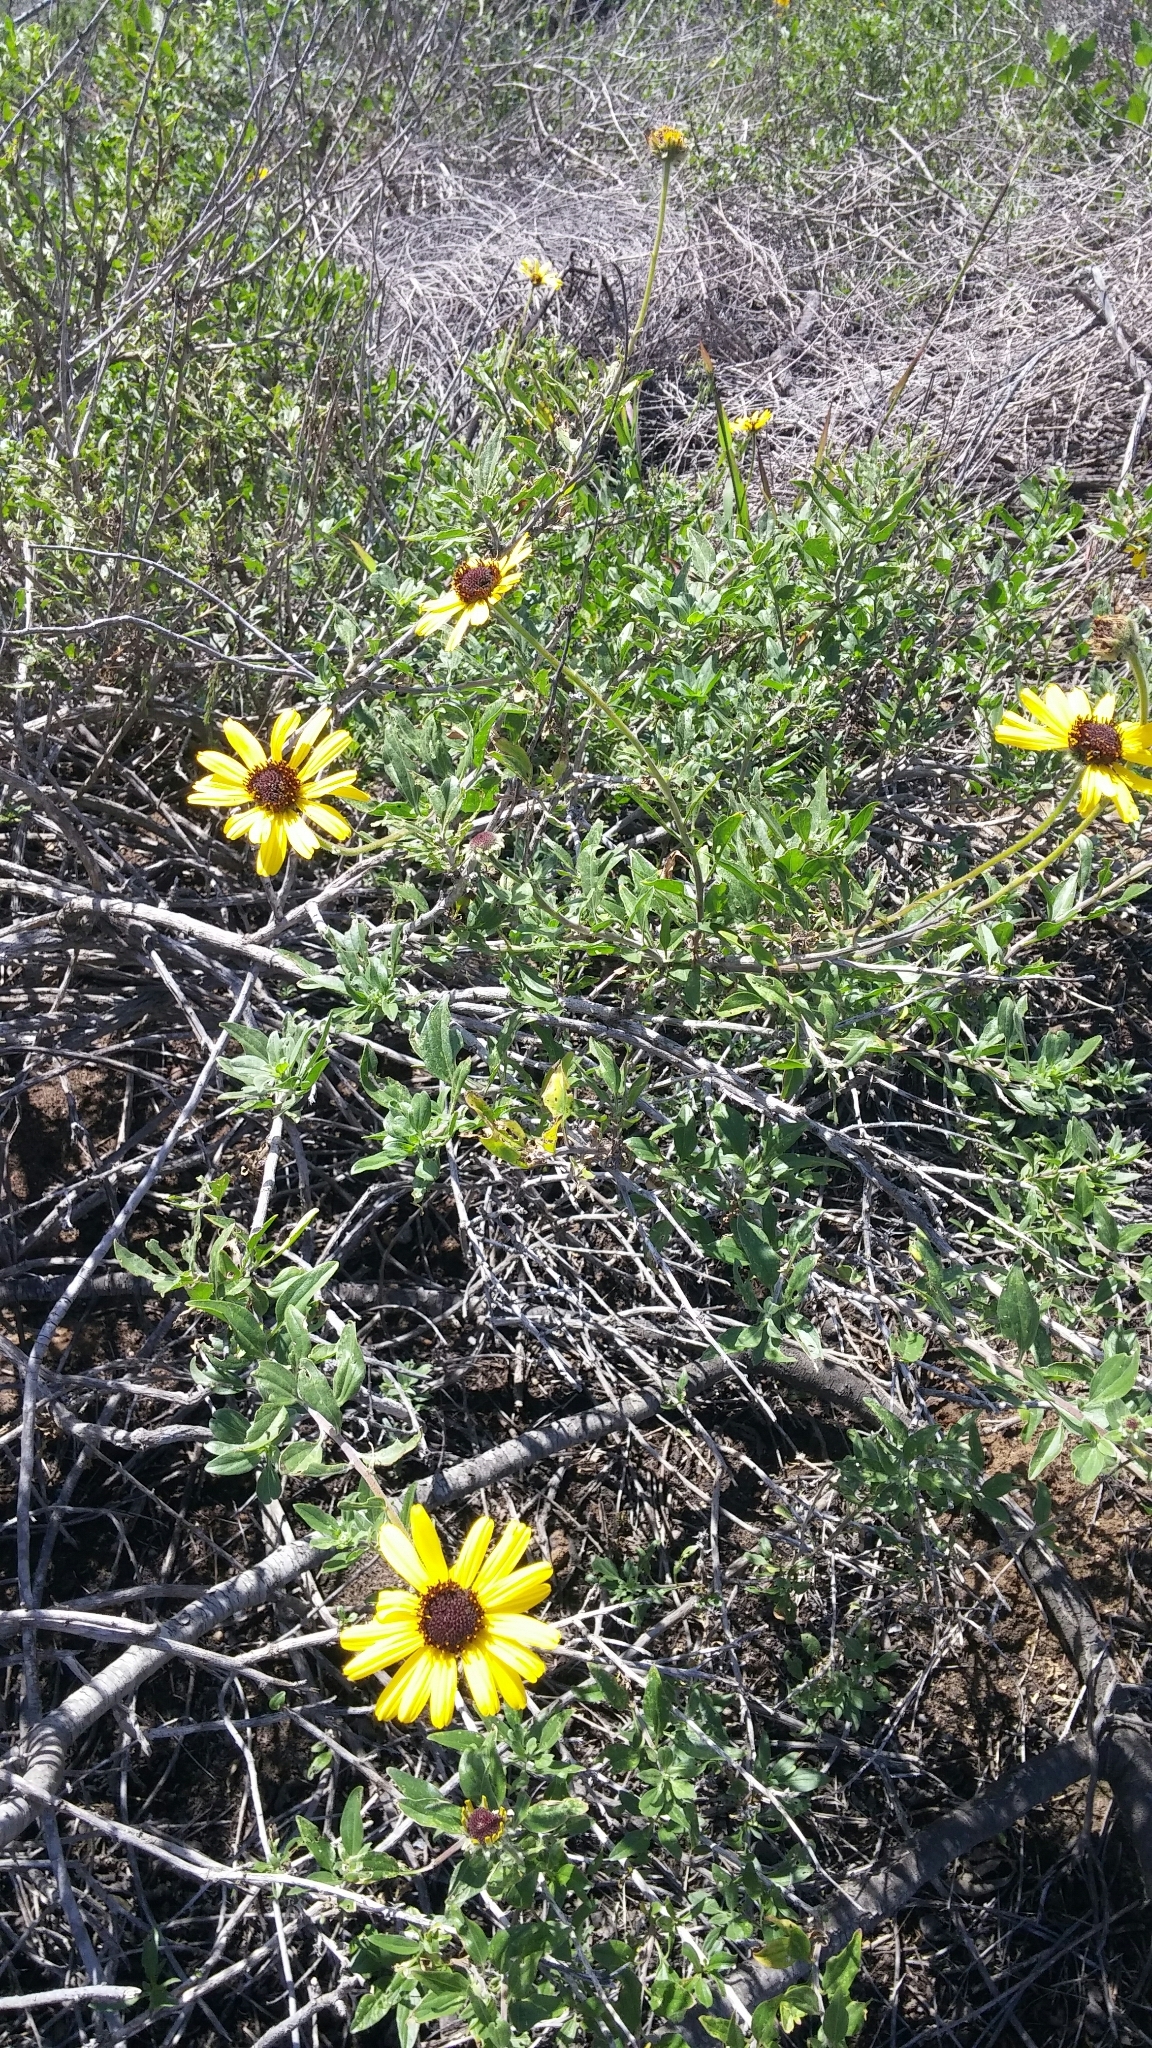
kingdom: Plantae
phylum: Tracheophyta
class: Magnoliopsida
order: Asterales
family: Asteraceae
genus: Encelia
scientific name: Encelia californica
